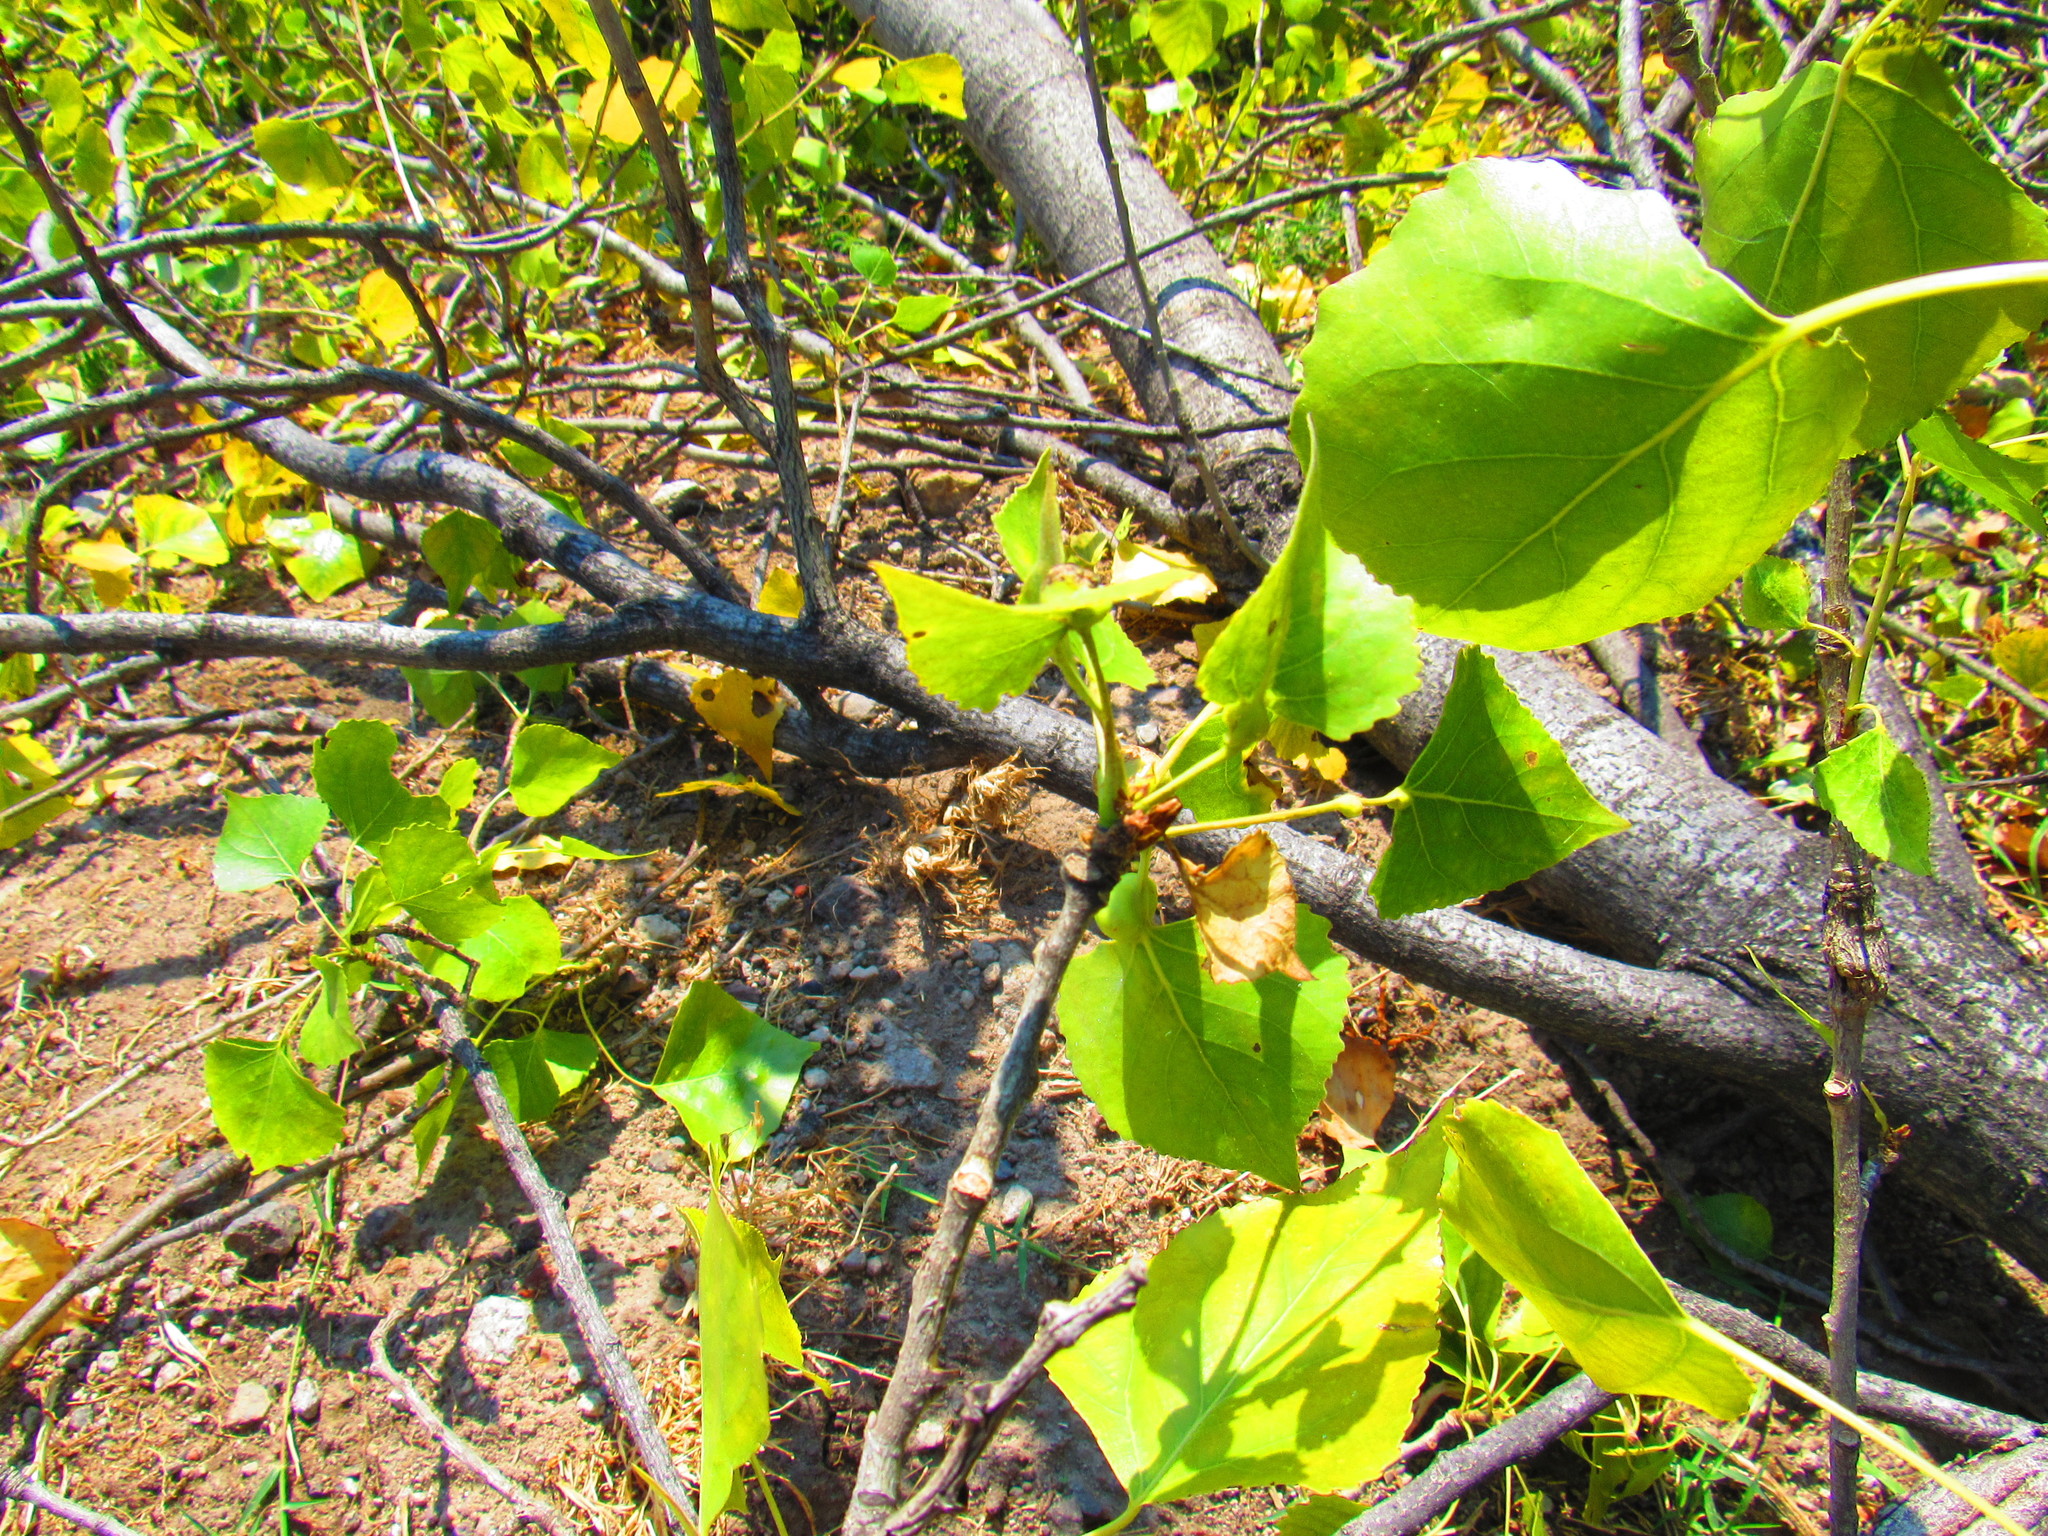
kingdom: Plantae
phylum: Tracheophyta
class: Magnoliopsida
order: Malpighiales
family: Salicaceae
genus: Populus
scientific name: Populus fremontii
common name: Fremont's cottonwood
